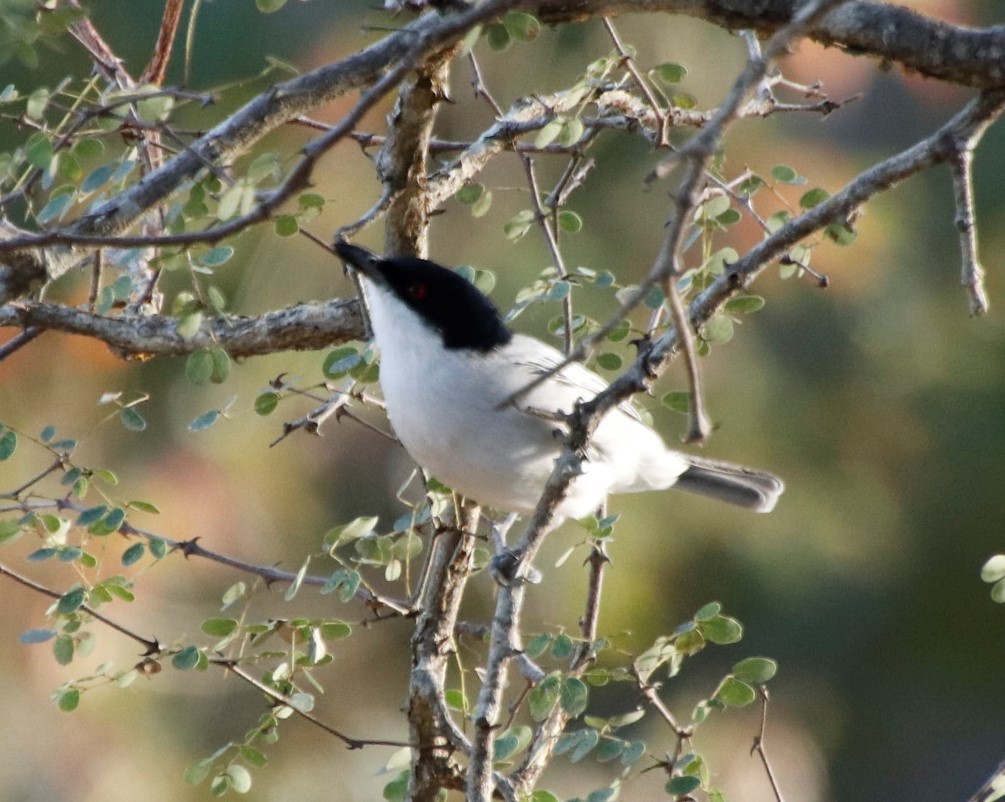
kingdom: Animalia
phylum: Chordata
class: Aves
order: Passeriformes
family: Malaconotidae
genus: Dryoscopus
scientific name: Dryoscopus cubla
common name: Black-backed puffback
